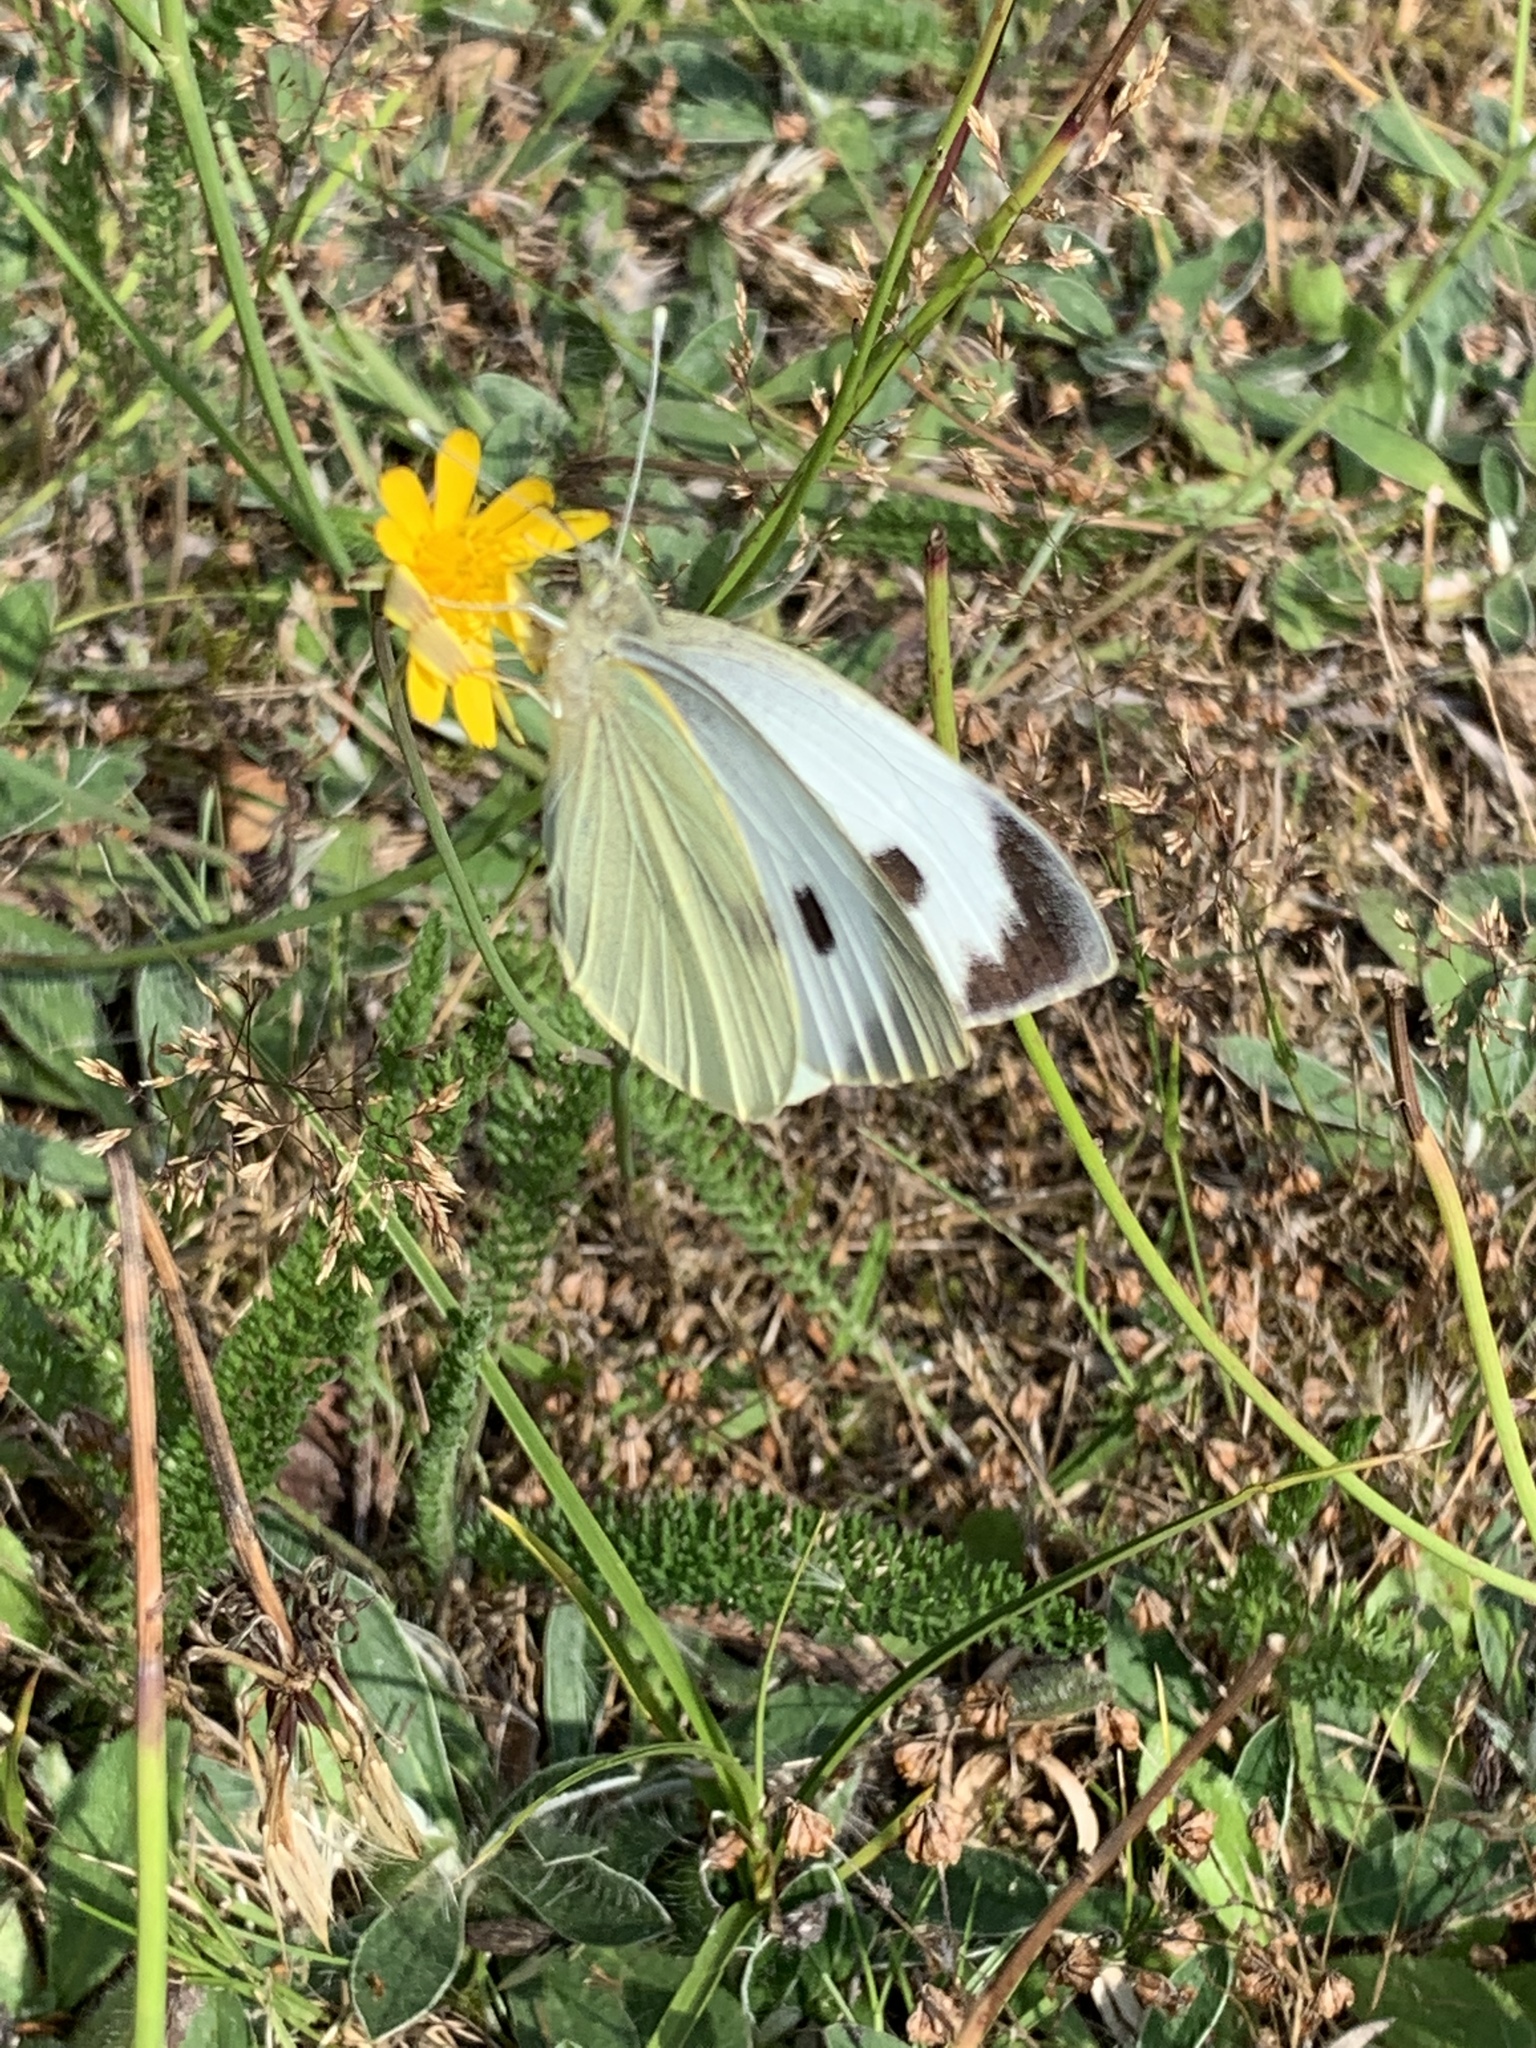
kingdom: Animalia
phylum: Arthropoda
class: Insecta
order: Lepidoptera
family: Pieridae
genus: Pieris
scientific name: Pieris brassicae
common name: Large white
